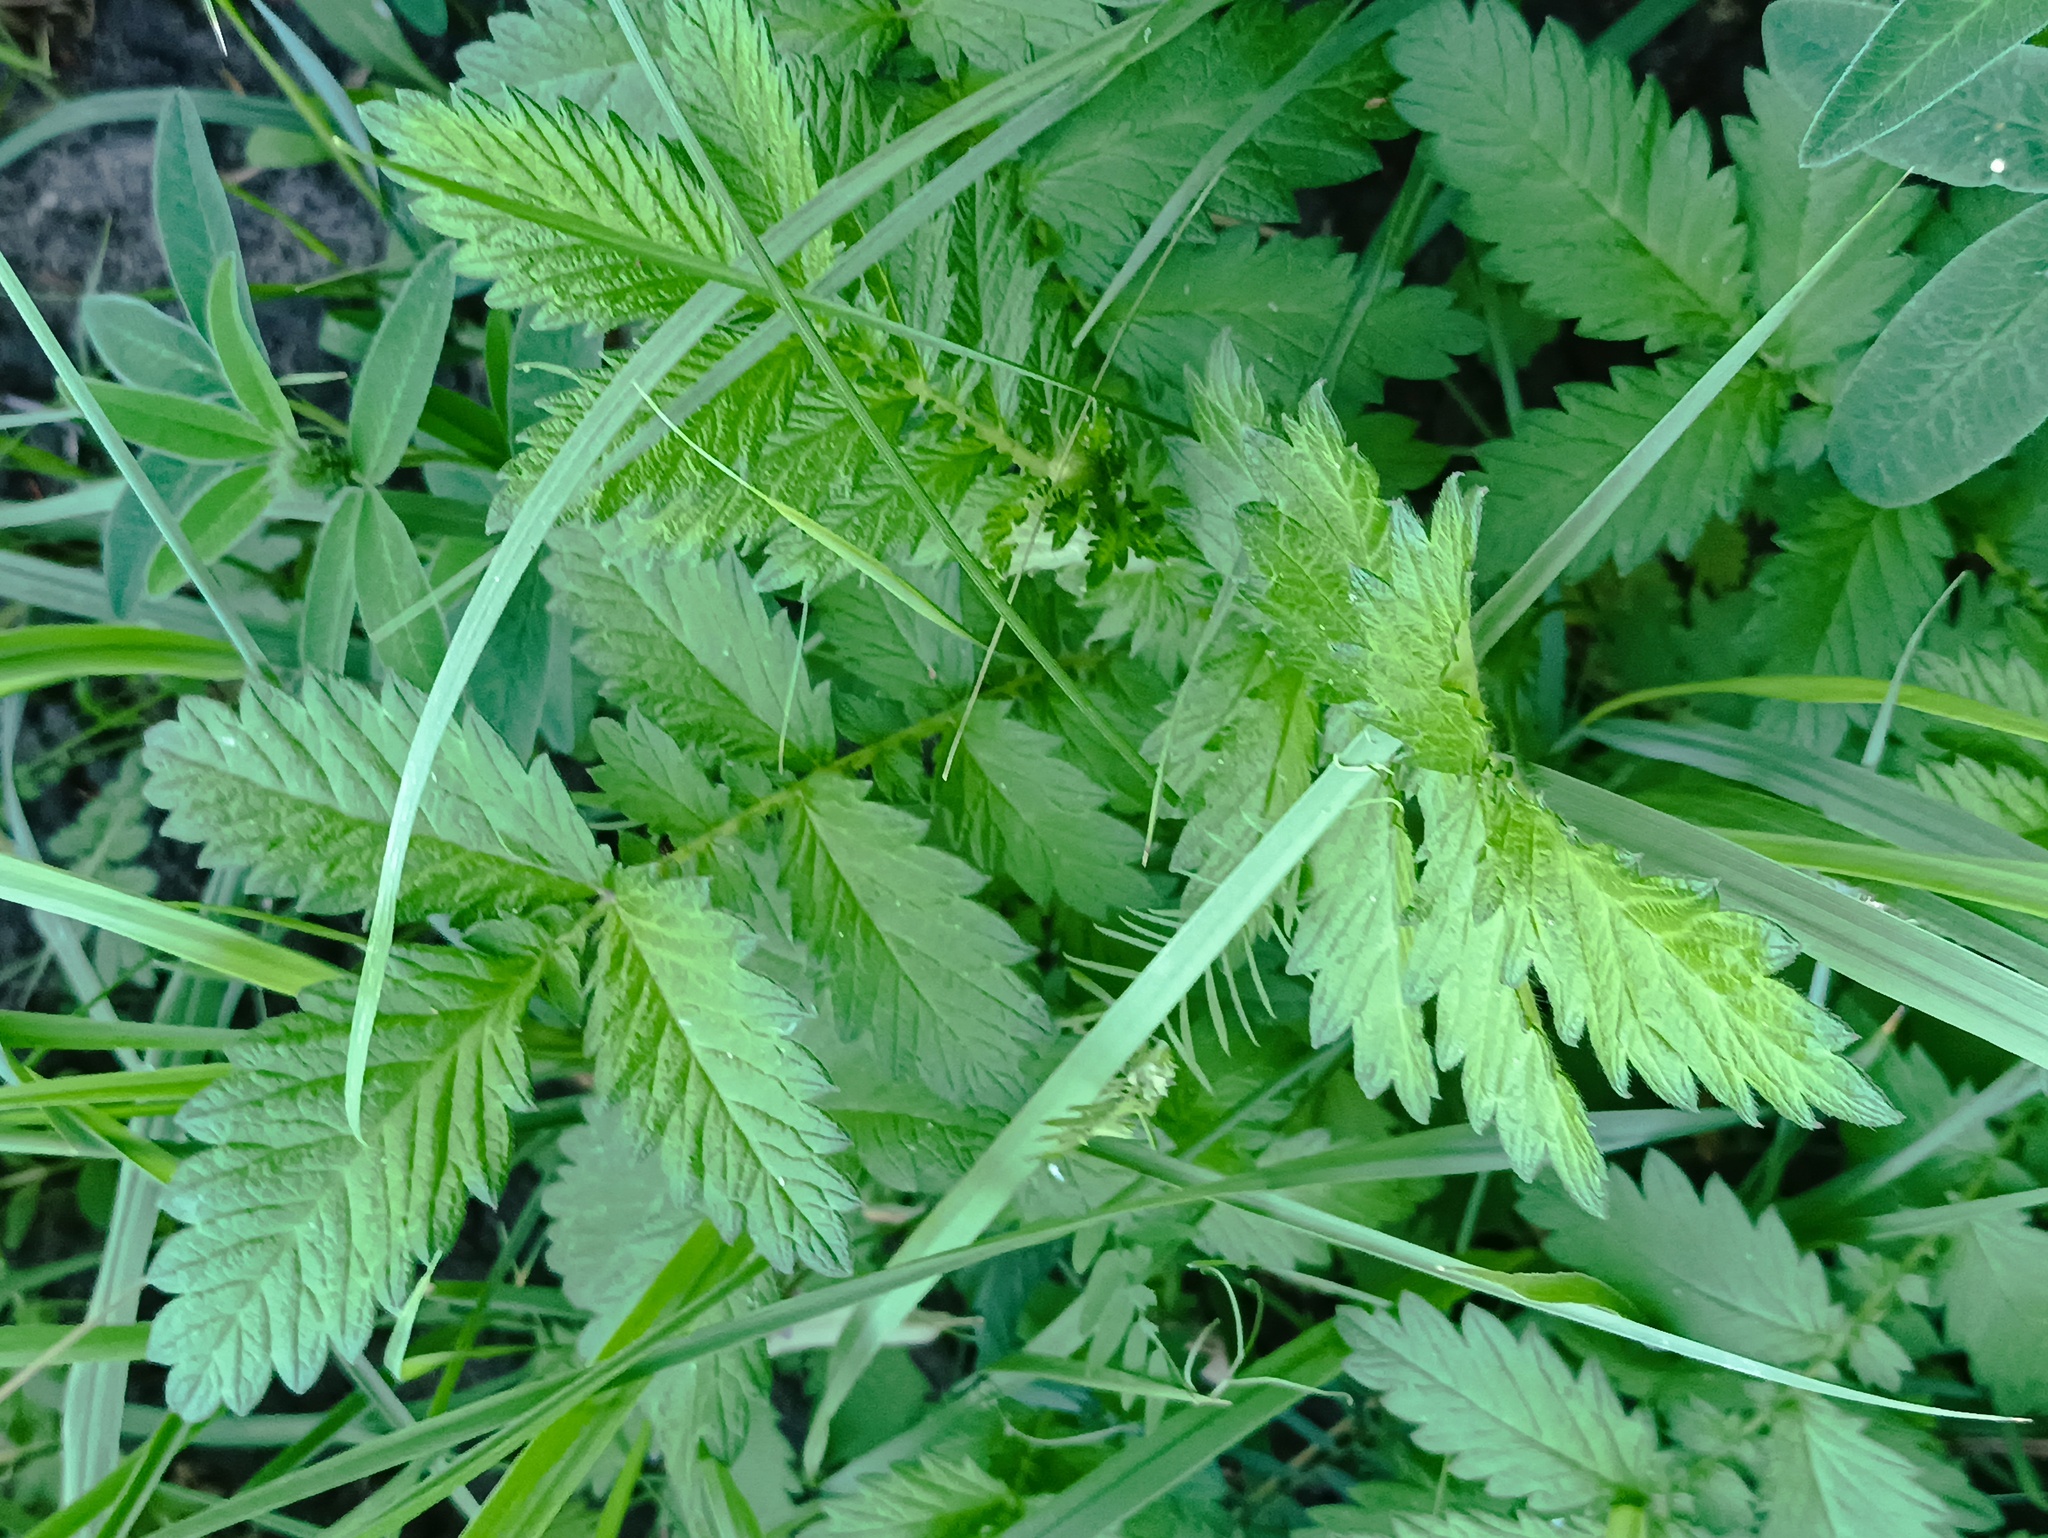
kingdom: Plantae
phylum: Tracheophyta
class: Magnoliopsida
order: Rosales
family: Rosaceae
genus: Agrimonia
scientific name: Agrimonia eupatoria
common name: Agrimony
